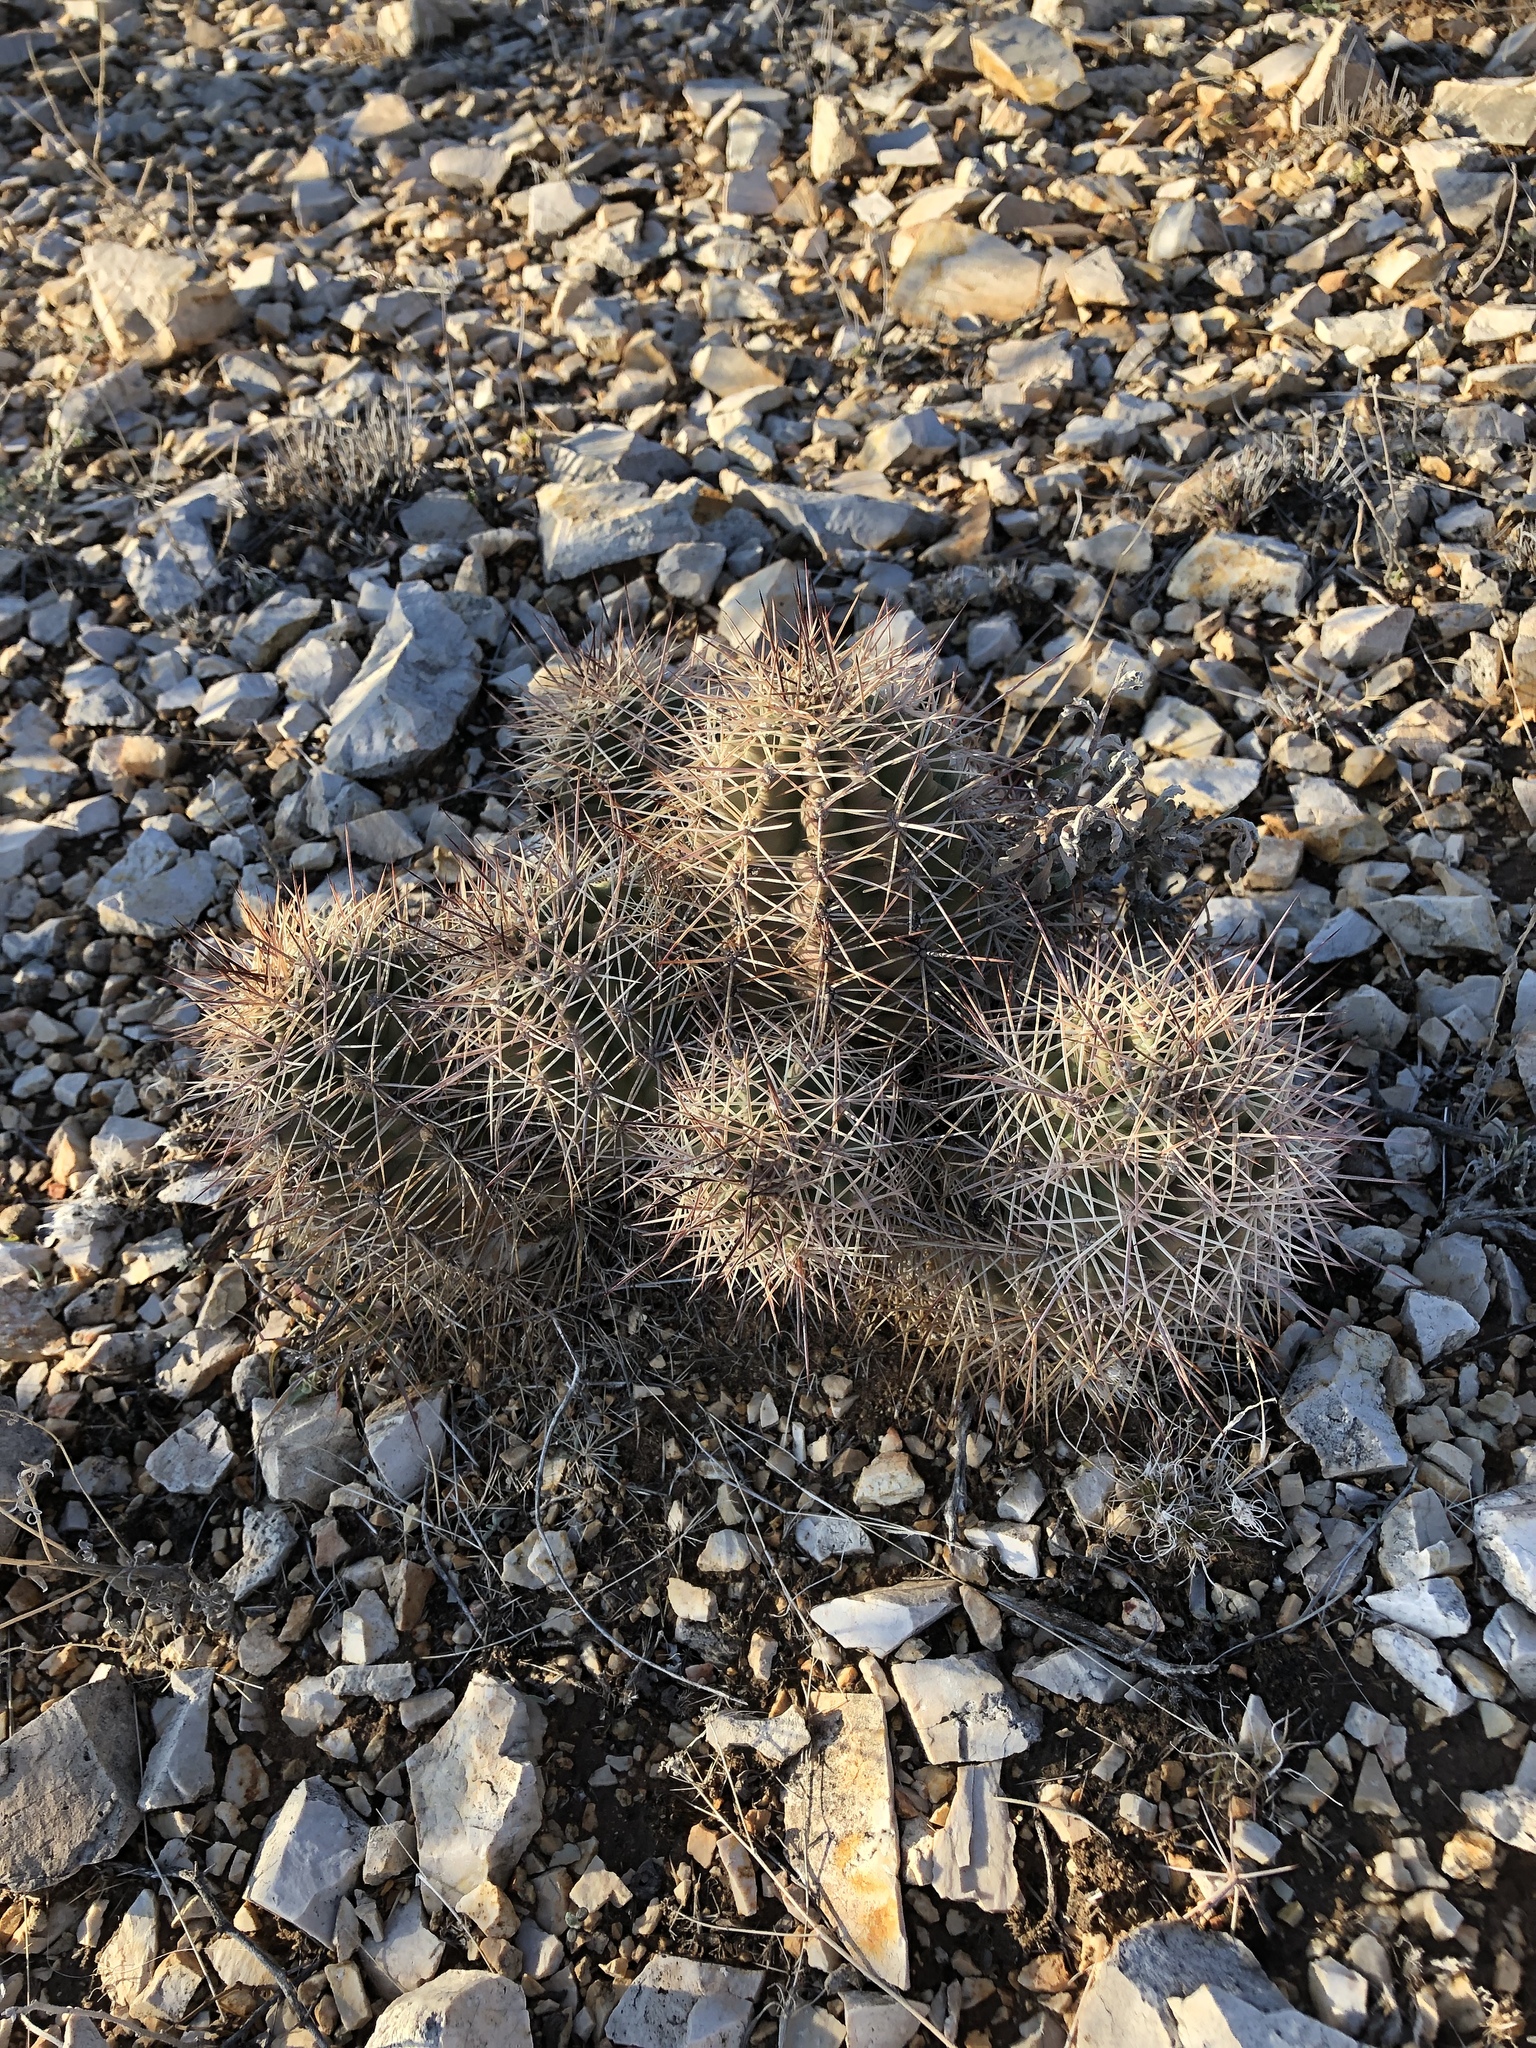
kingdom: Plantae
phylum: Tracheophyta
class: Magnoliopsida
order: Caryophyllales
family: Cactaceae
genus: Echinocereus
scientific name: Echinocereus coccineus
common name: Scarlet hedgehog cactus
